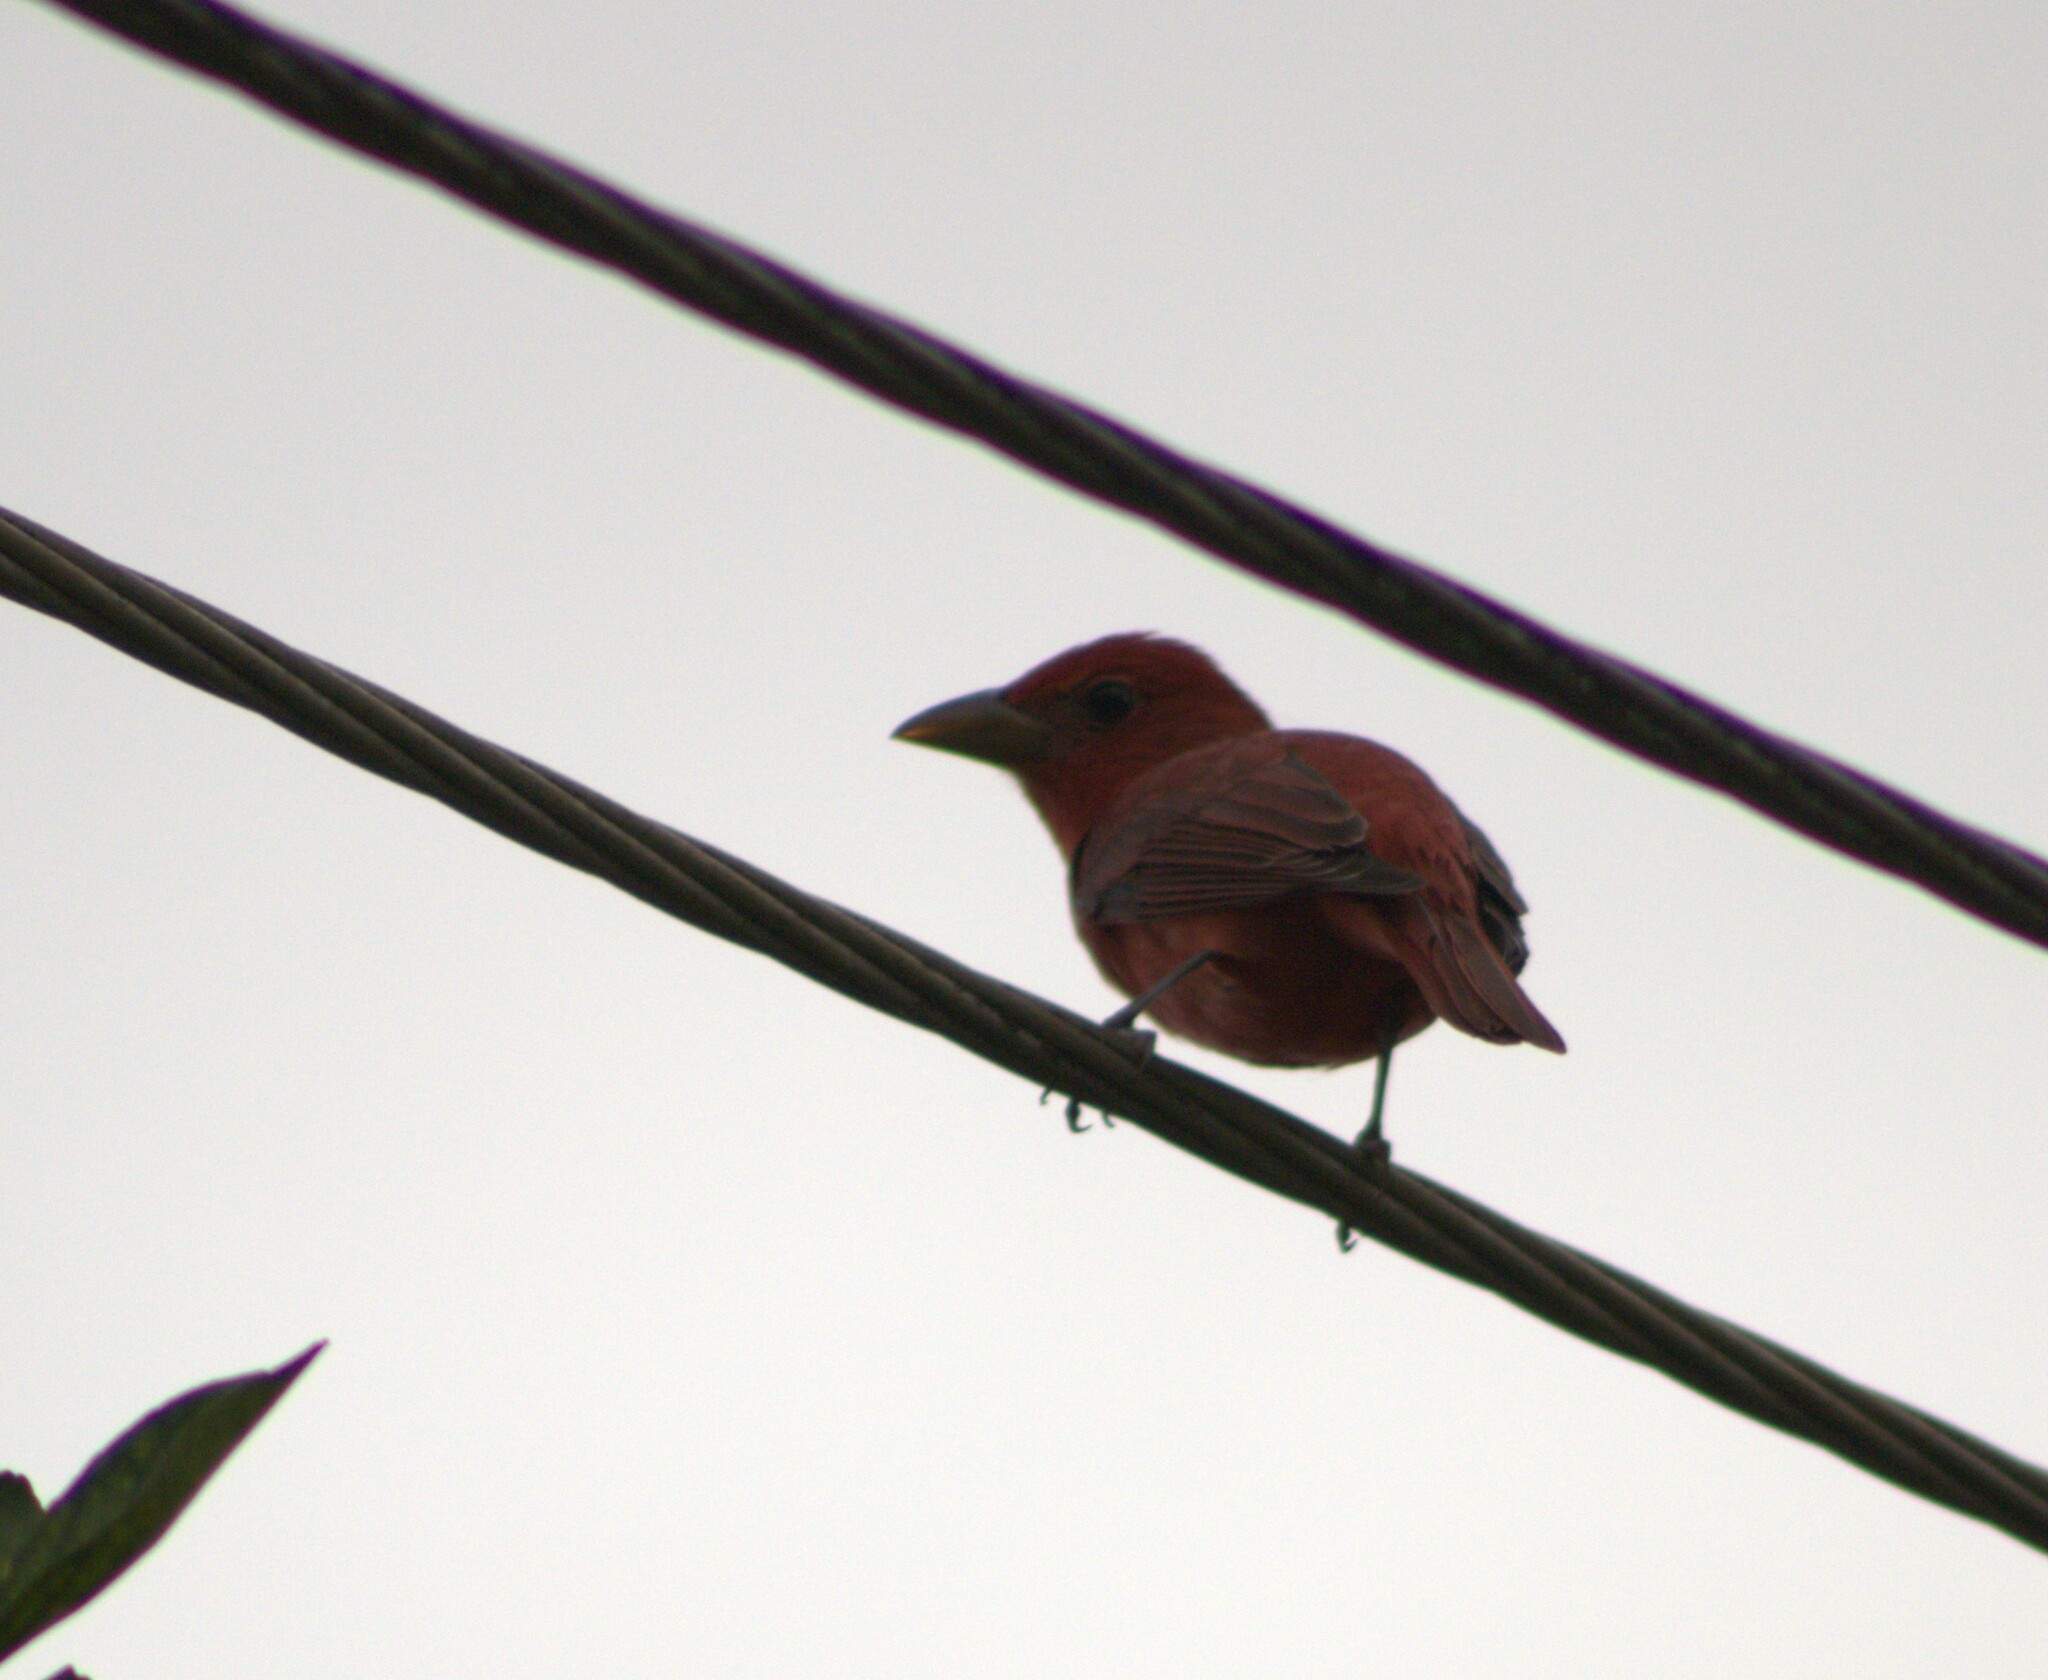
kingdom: Animalia
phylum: Chordata
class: Aves
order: Passeriformes
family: Cardinalidae
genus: Piranga
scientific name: Piranga rubra
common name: Summer tanager
